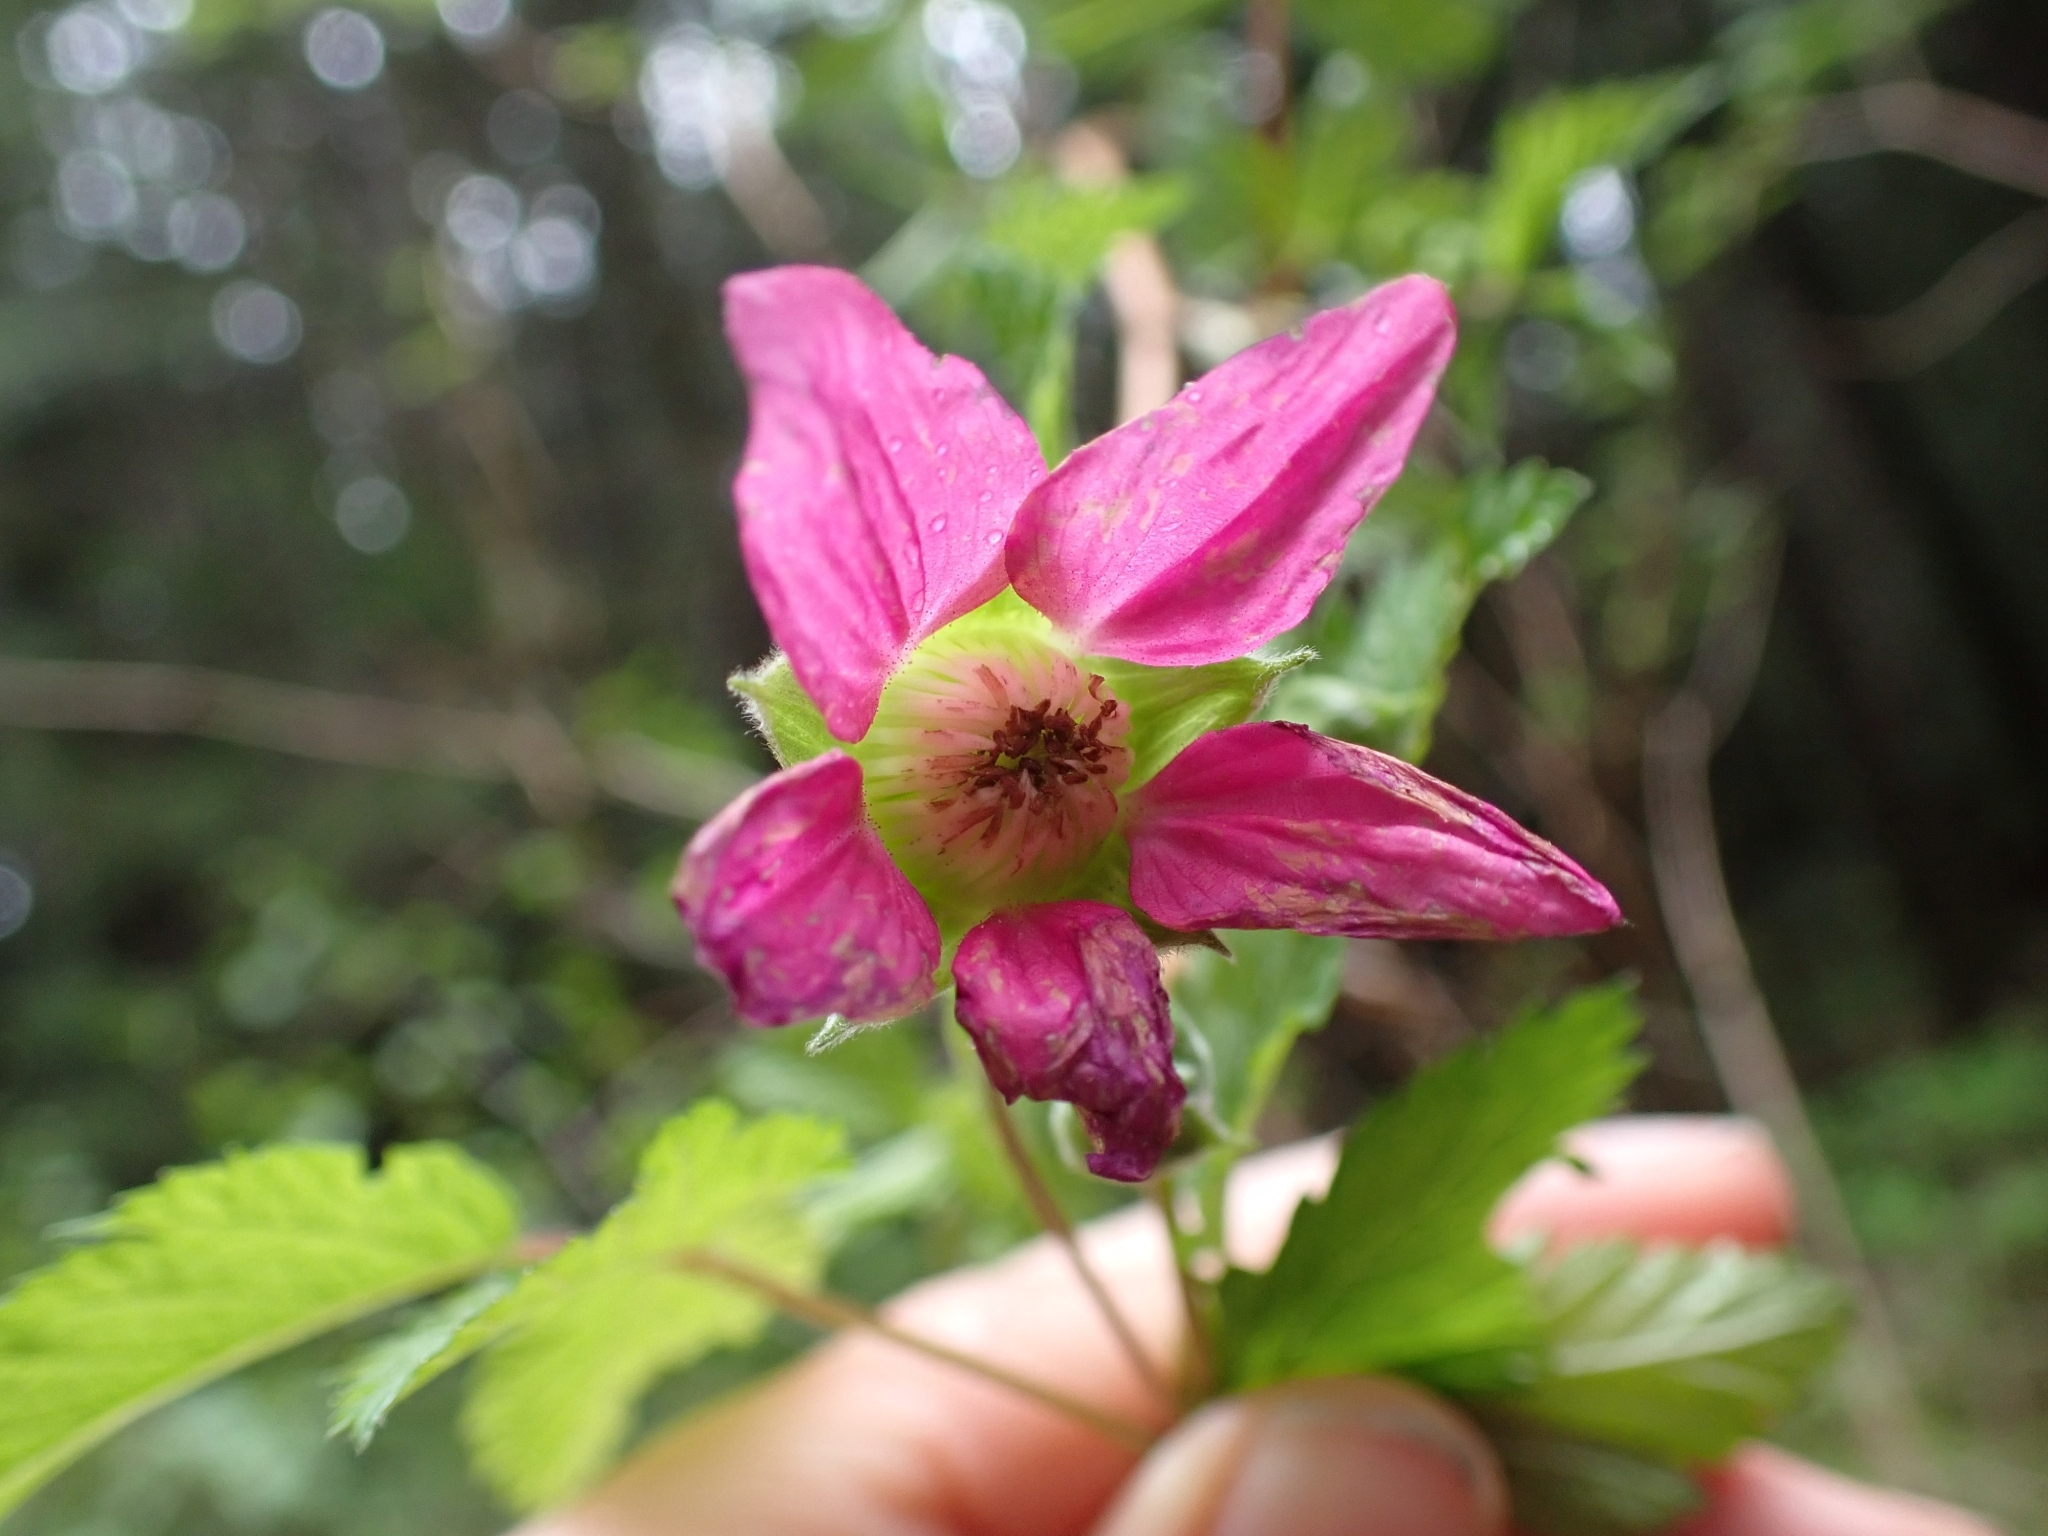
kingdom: Plantae
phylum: Tracheophyta
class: Magnoliopsida
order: Rosales
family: Rosaceae
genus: Rubus
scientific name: Rubus spectabilis
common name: Salmonberry
